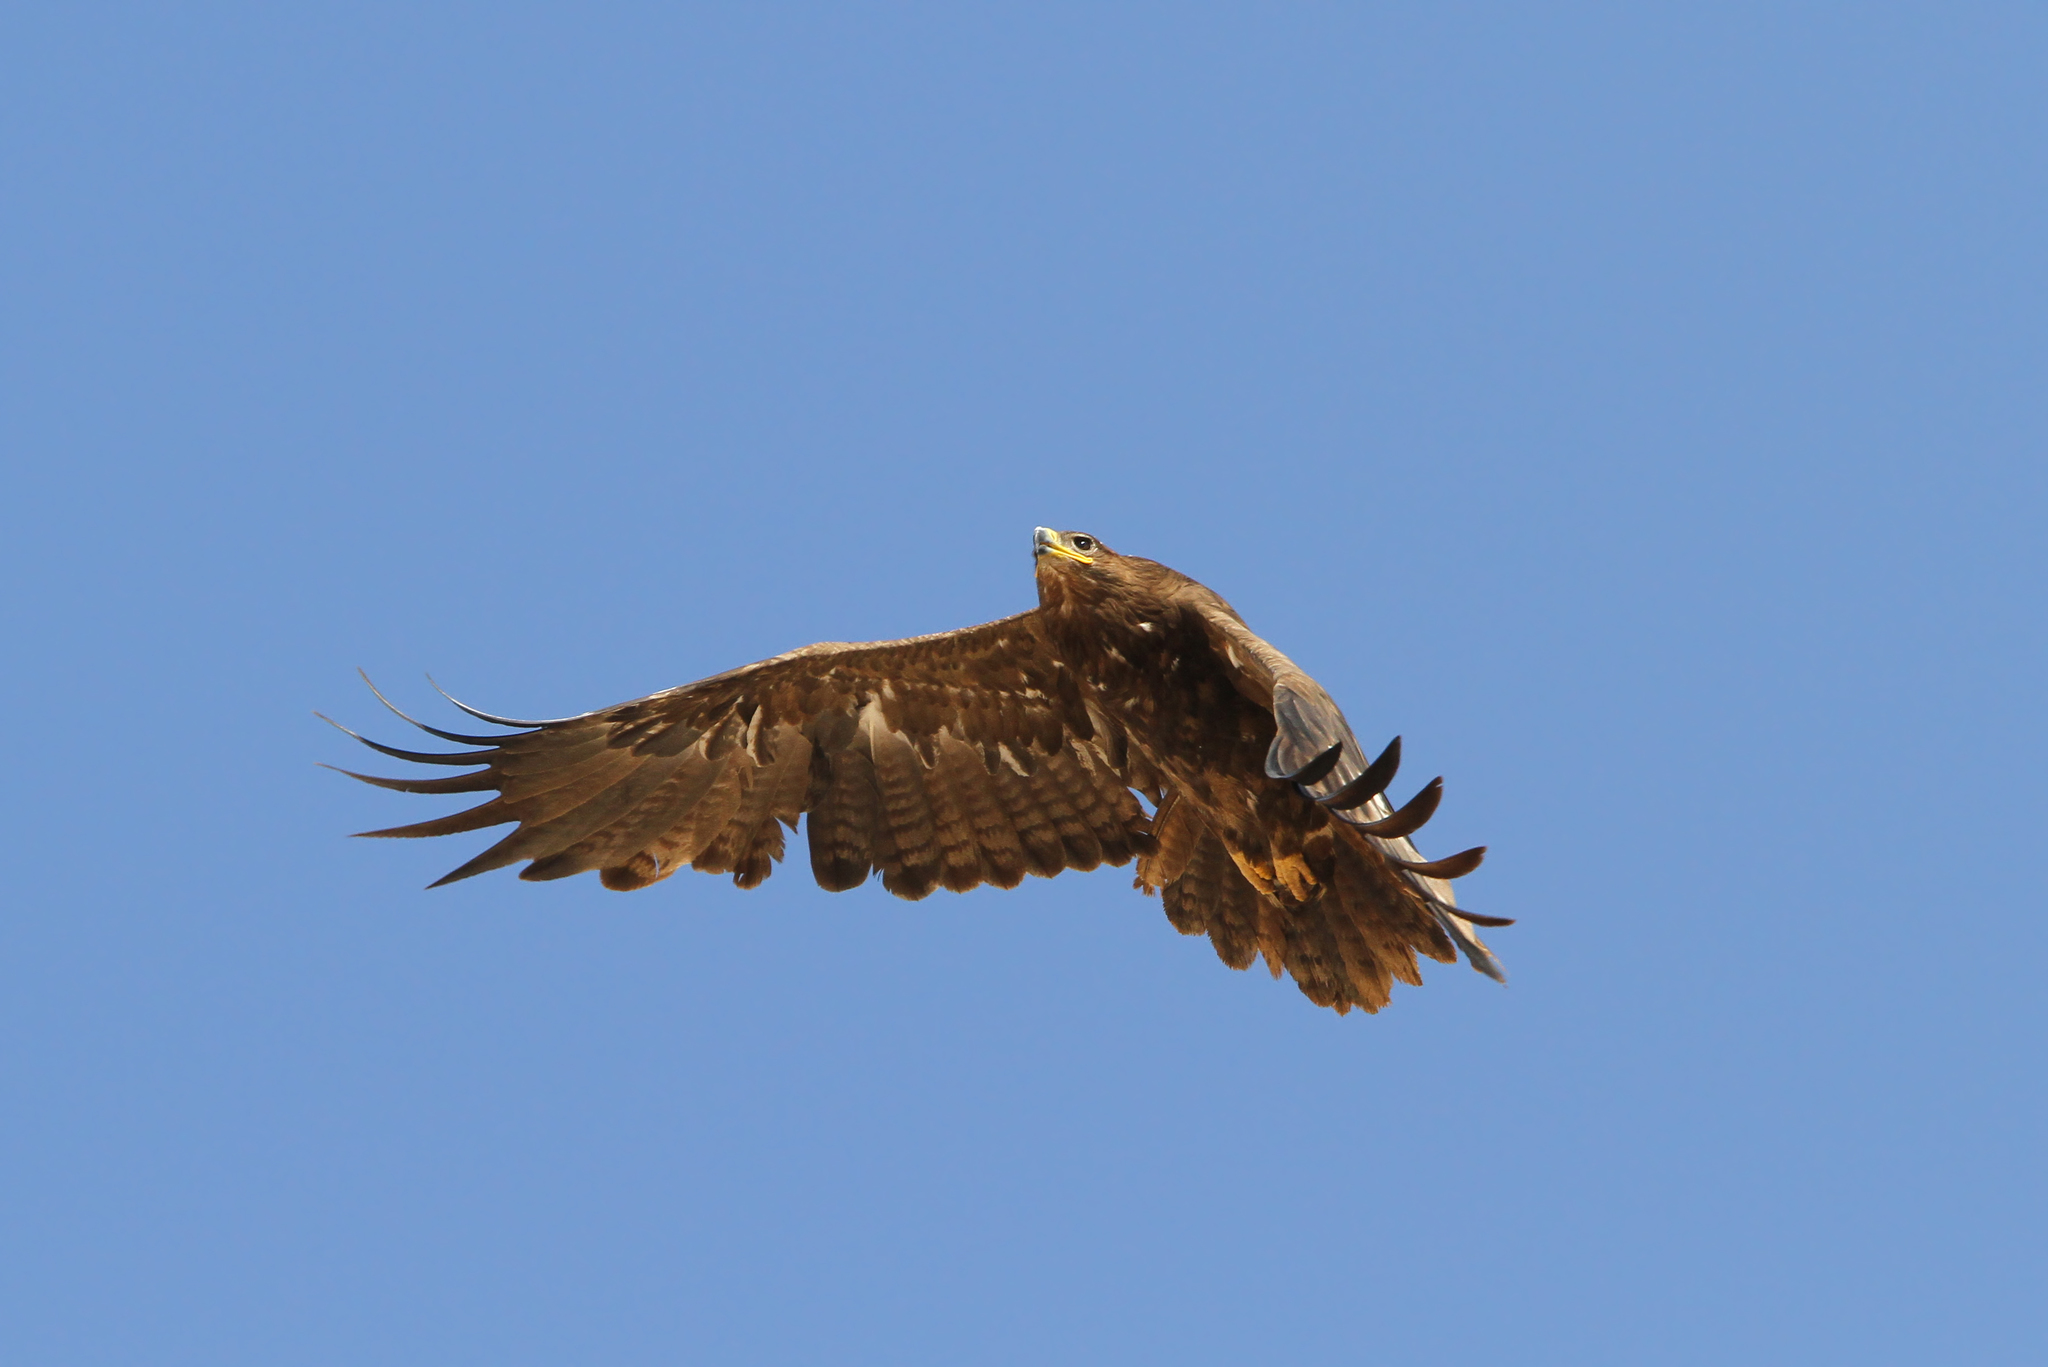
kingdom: Animalia
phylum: Chordata
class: Aves
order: Accipitriformes
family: Accipitridae
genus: Aquila
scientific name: Aquila nipalensis
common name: Steppe eagle
